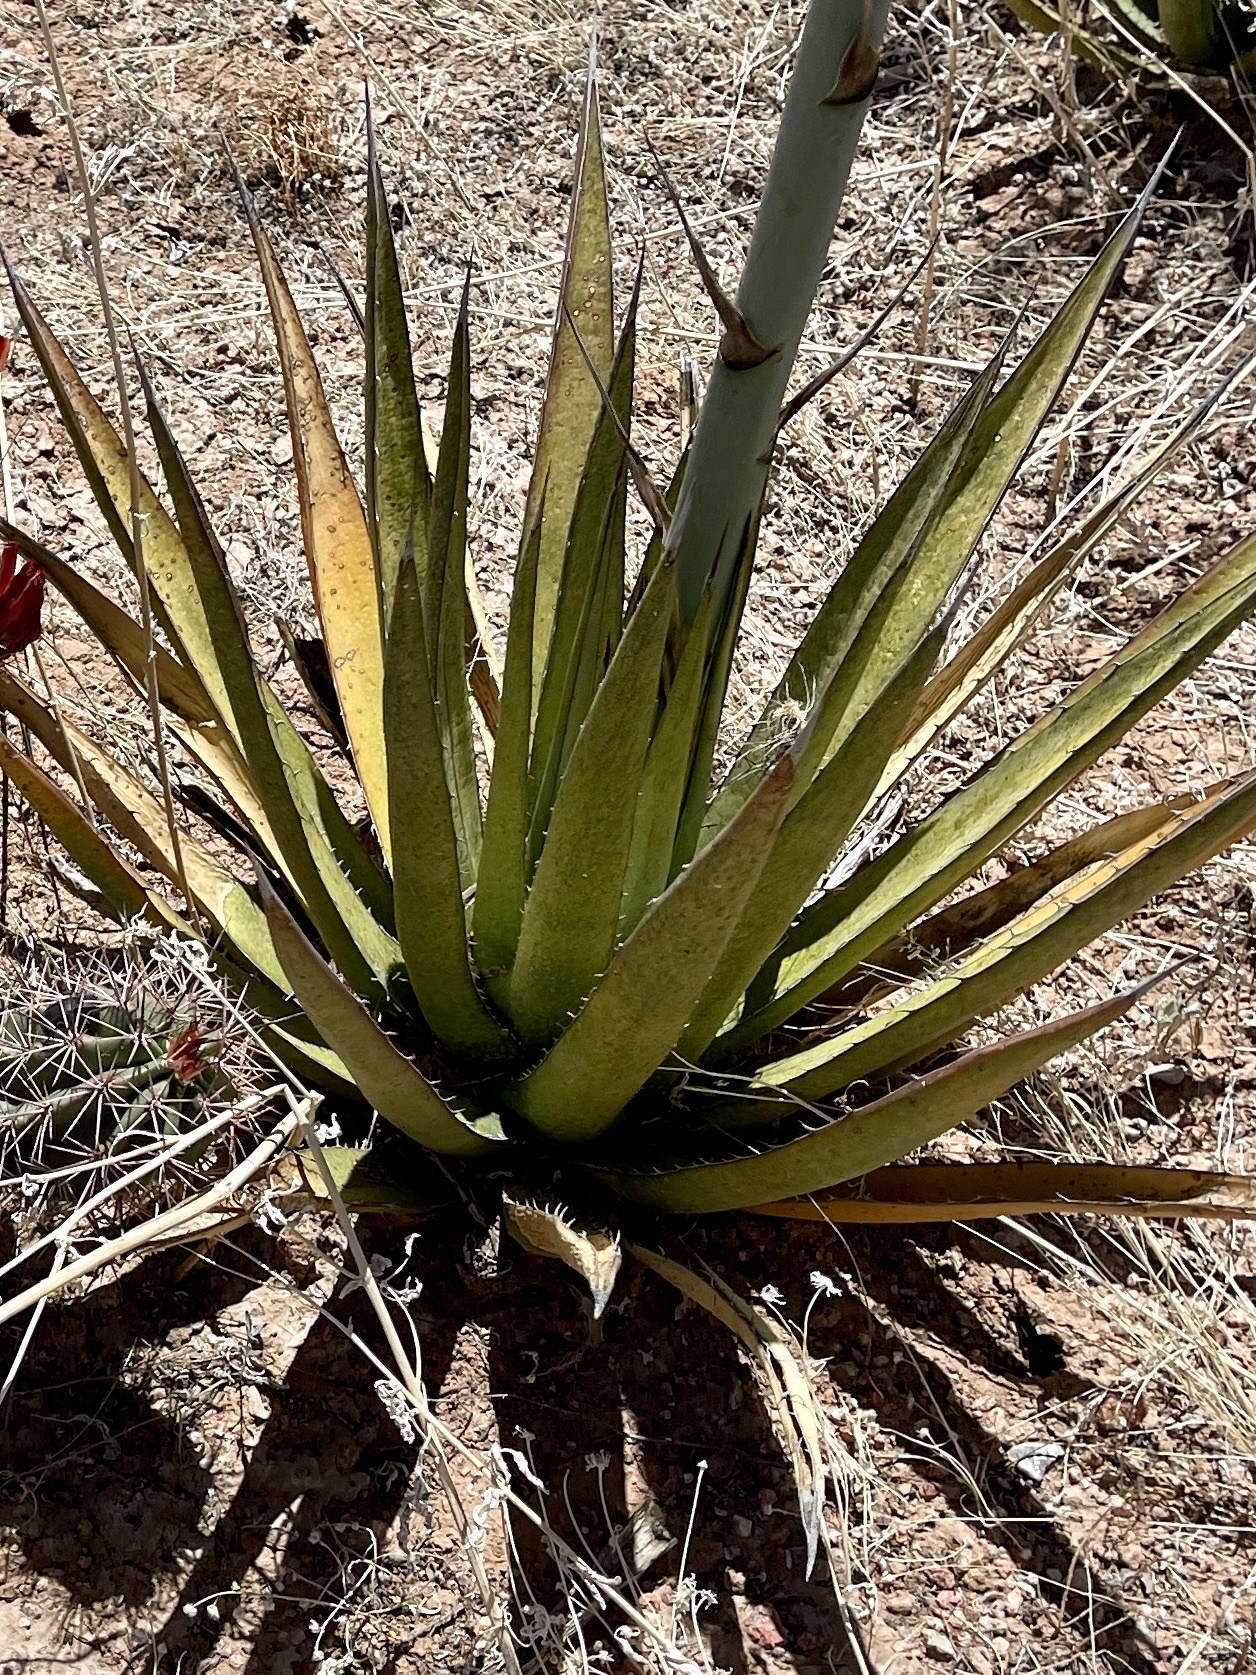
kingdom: Plantae
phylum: Tracheophyta
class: Liliopsida
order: Asparagales
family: Asparagaceae
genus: Agave
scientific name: Agave lechuguilla
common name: Lecheguilla agave
